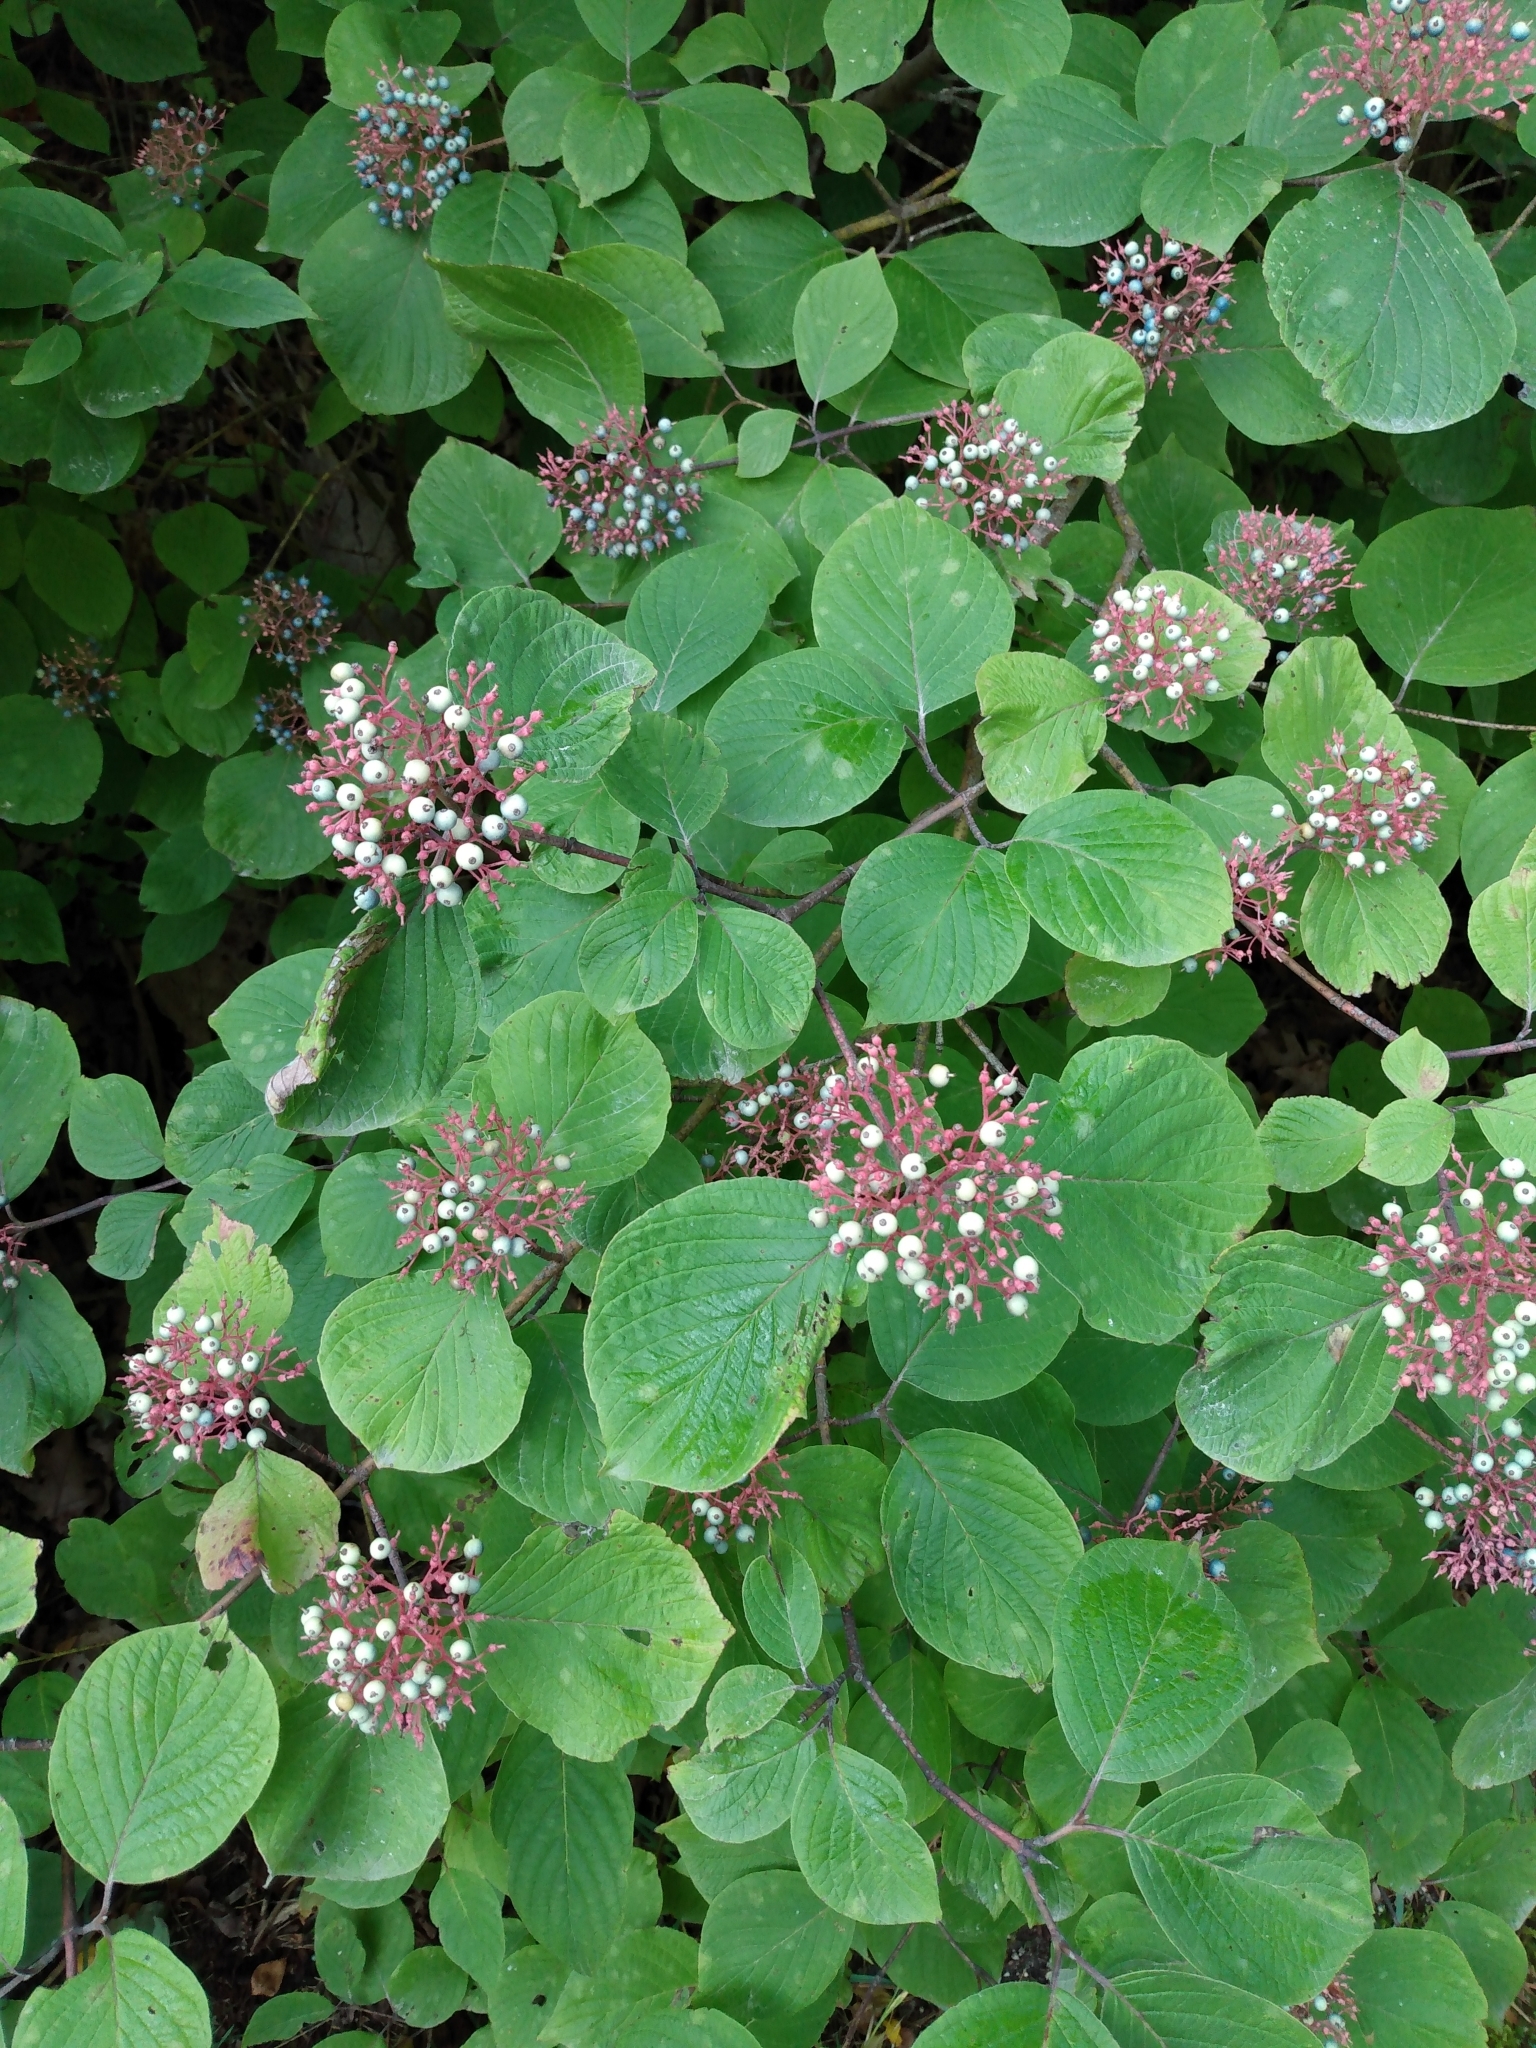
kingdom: Plantae
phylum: Tracheophyta
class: Magnoliopsida
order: Cornales
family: Cornaceae
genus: Cornus
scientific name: Cornus rugosa
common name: Round-leaf dogwood
